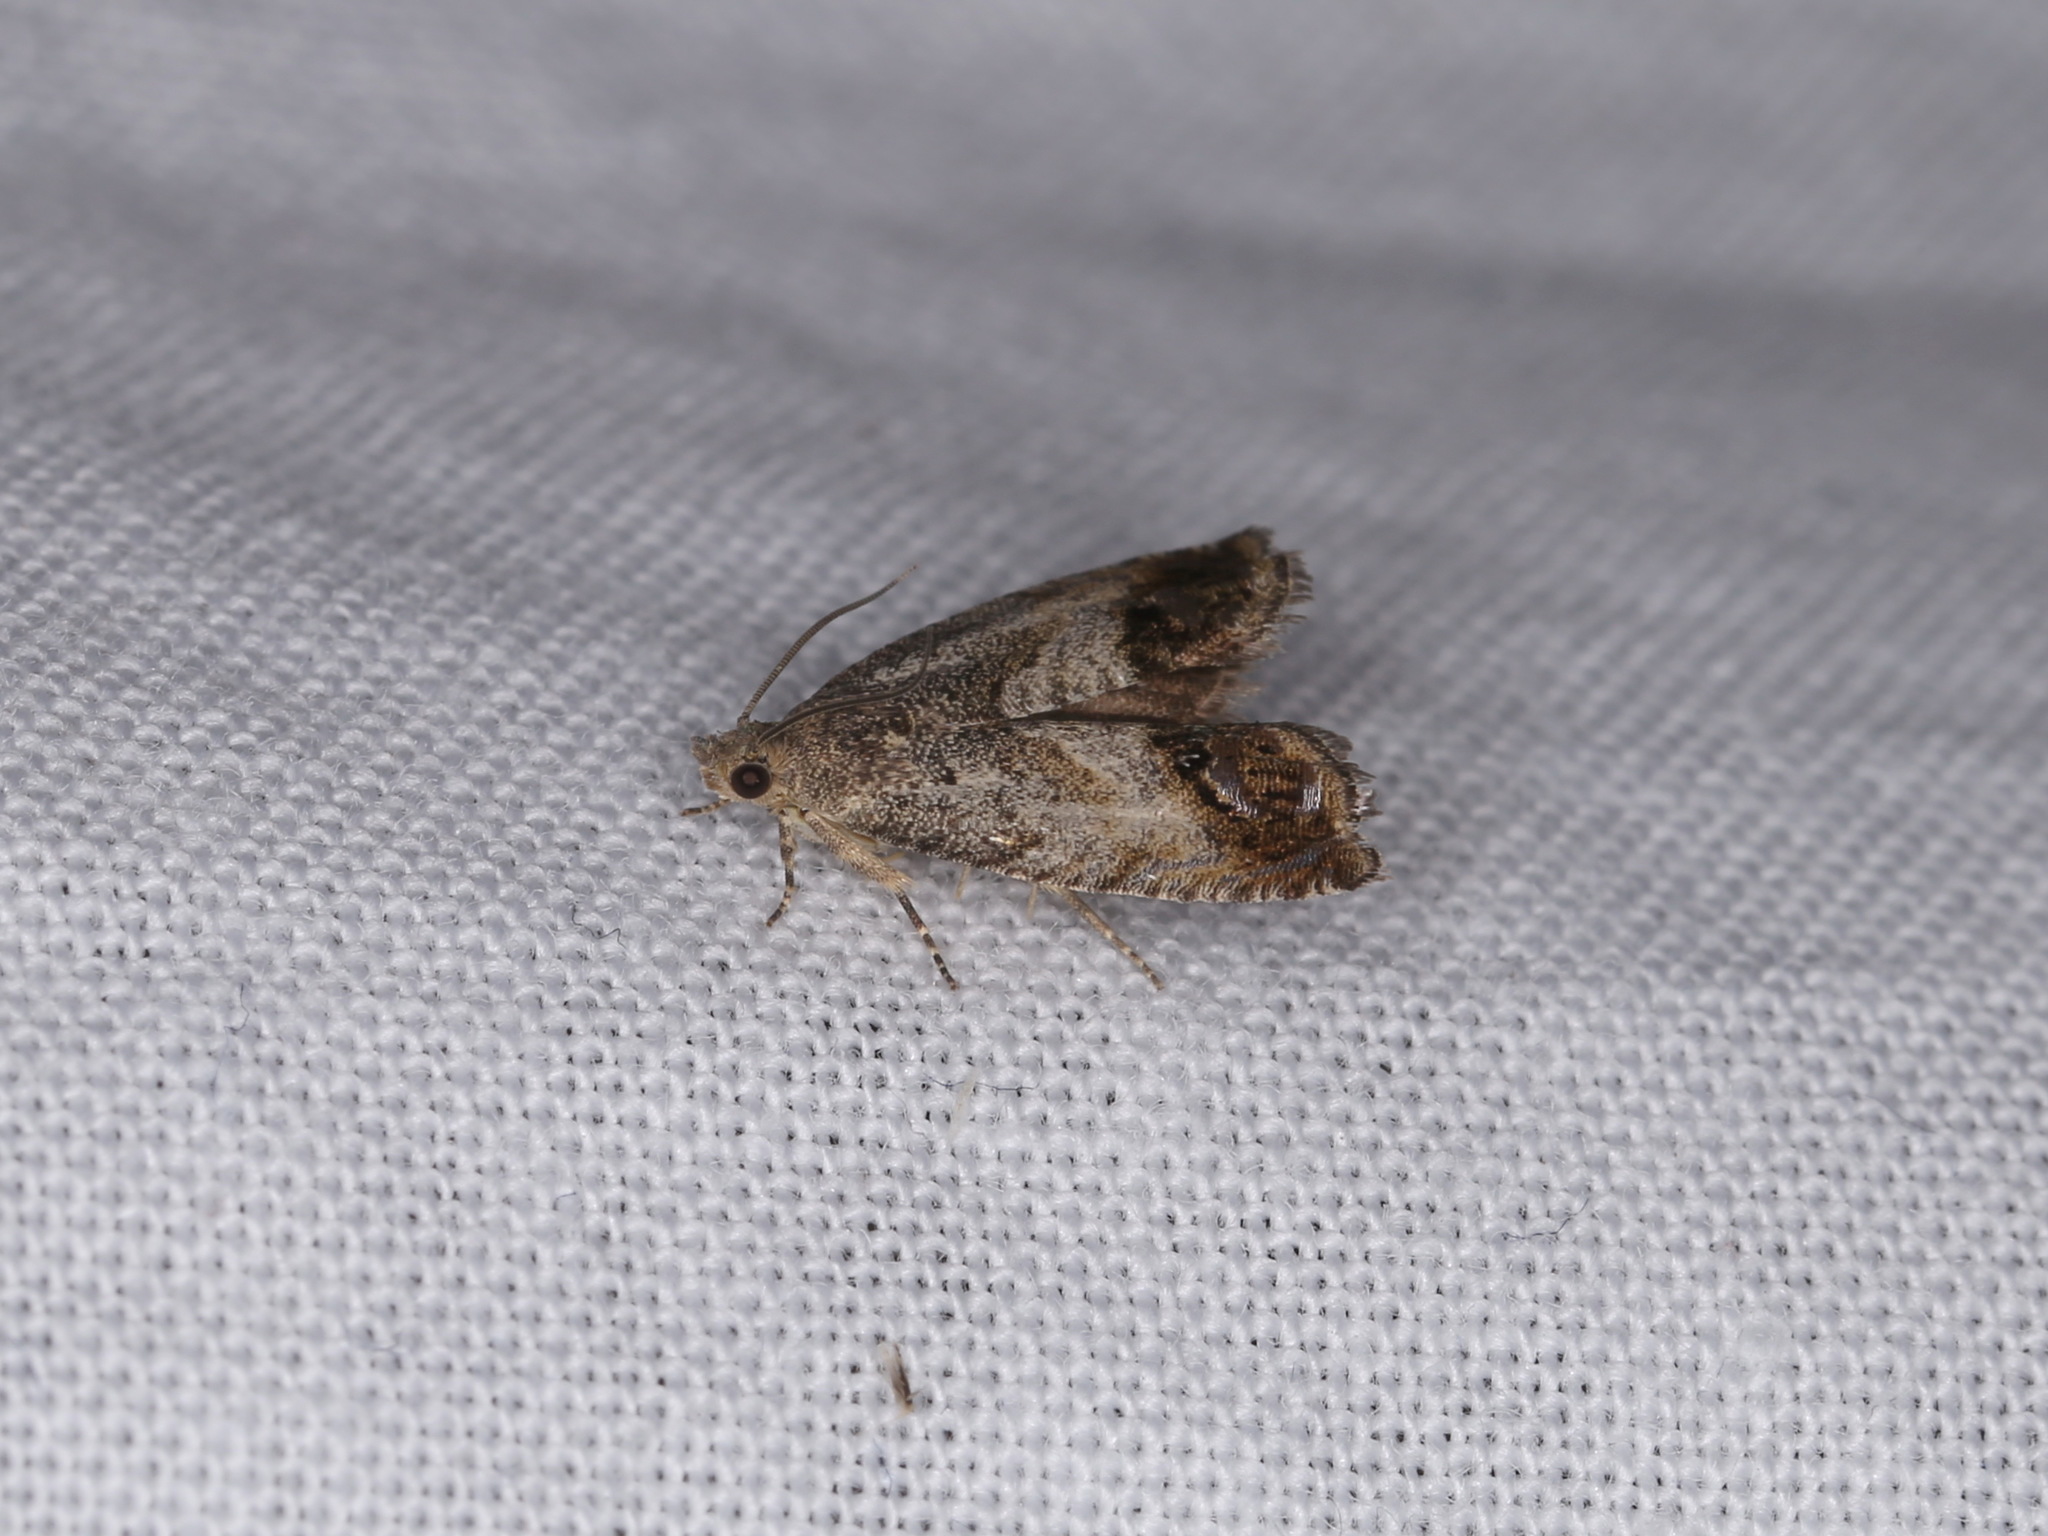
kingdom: Animalia
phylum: Arthropoda
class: Insecta
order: Lepidoptera
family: Tortricidae
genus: Cydia
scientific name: Cydia pomonella
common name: Codling moth
